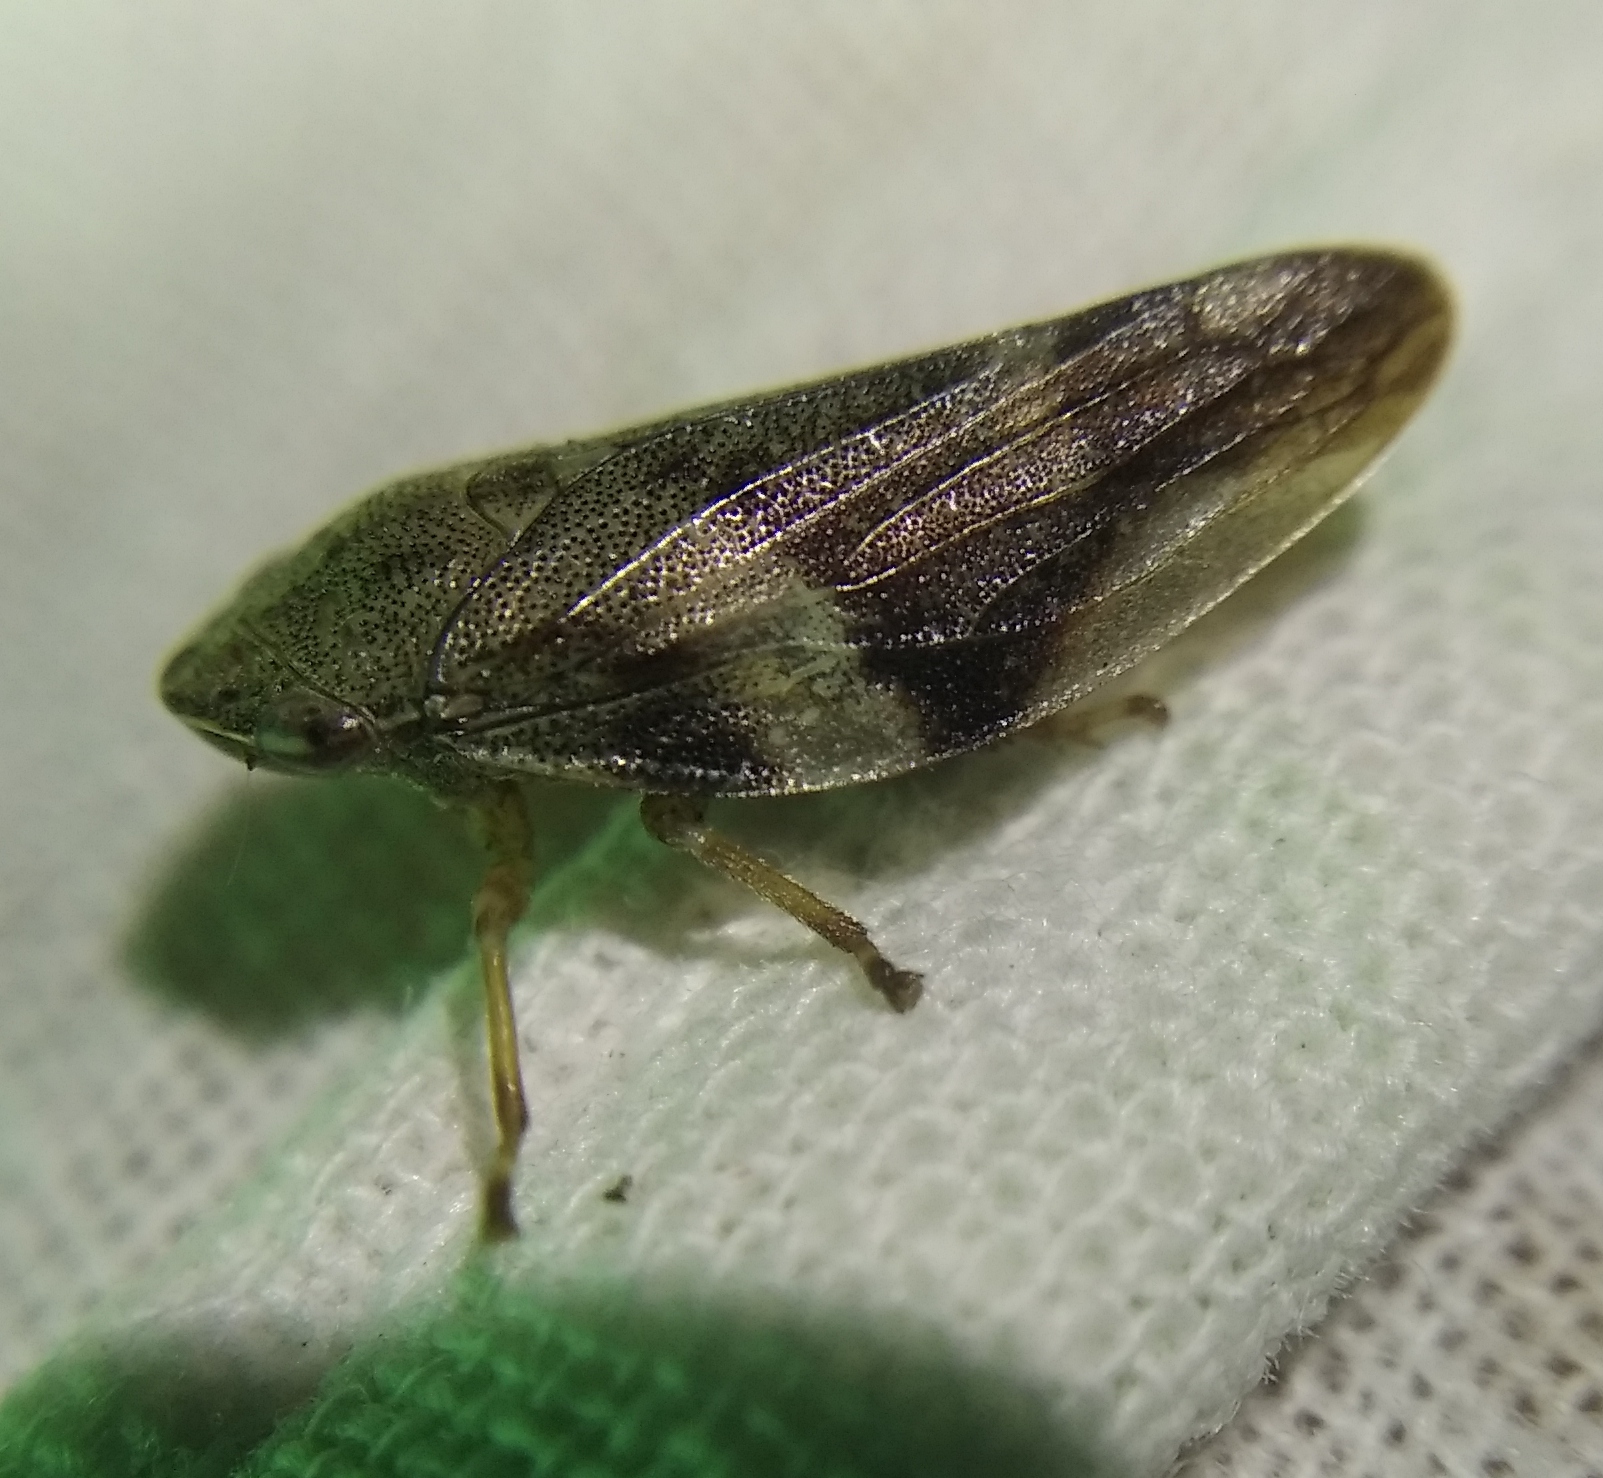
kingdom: Animalia
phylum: Arthropoda
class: Insecta
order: Hemiptera
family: Aphrophoridae
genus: Aphrophora
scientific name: Aphrophora alni
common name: European alder spittlebug
